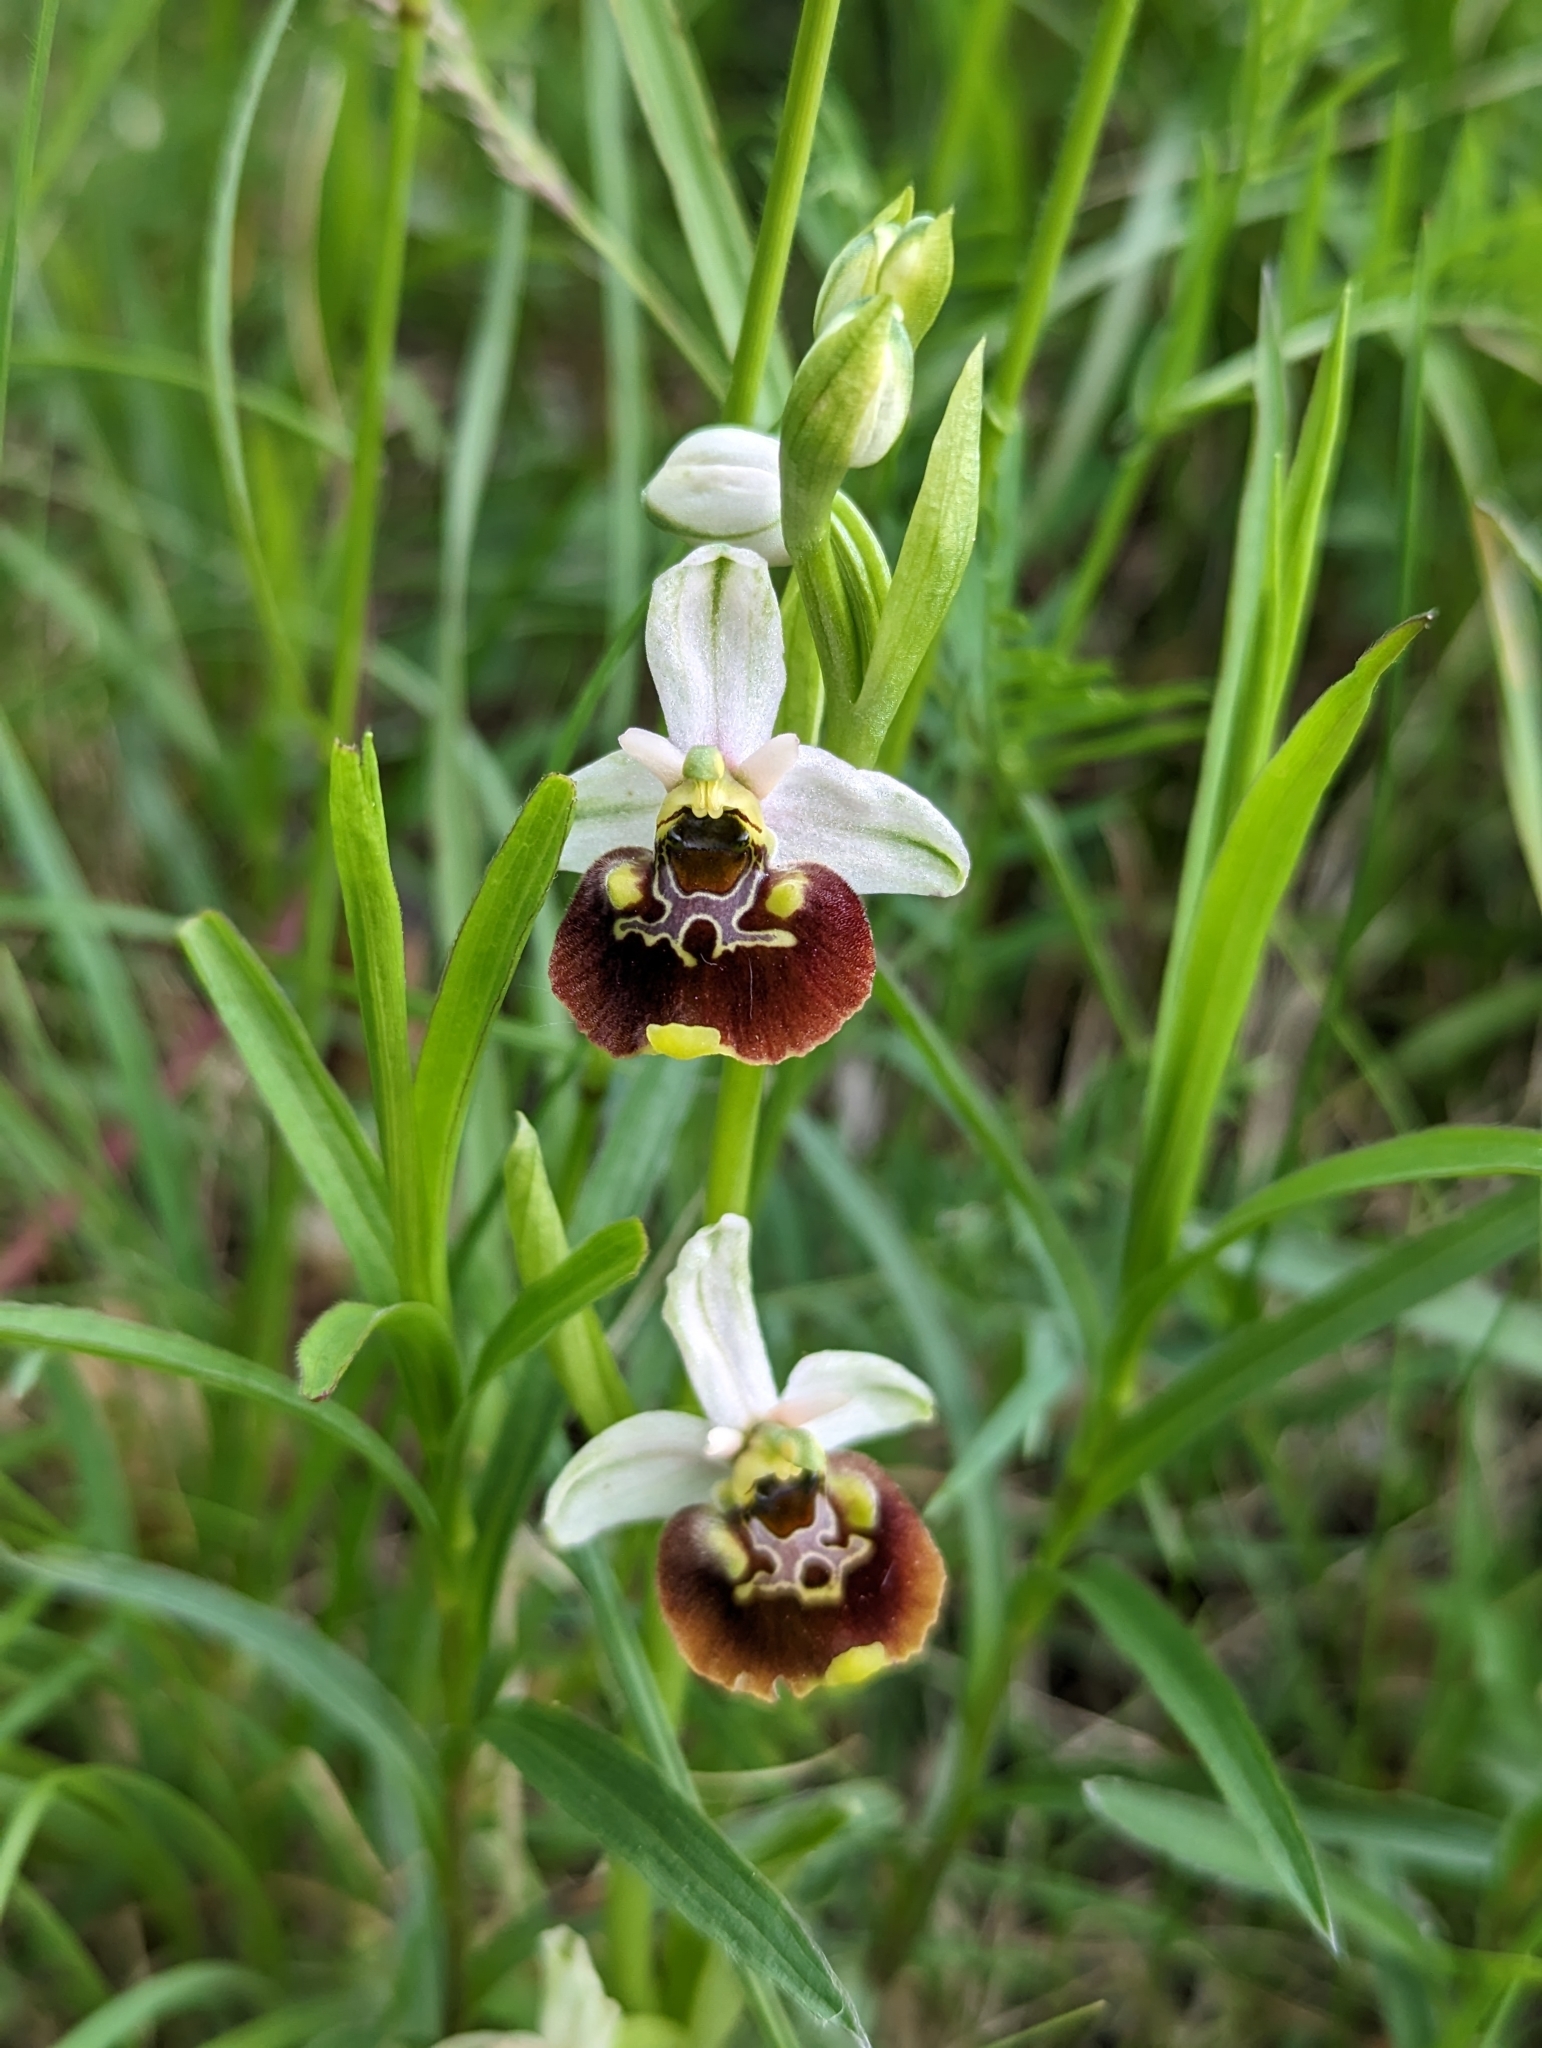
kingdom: Plantae
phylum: Tracheophyta
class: Liliopsida
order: Asparagales
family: Orchidaceae
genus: Ophrys
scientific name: Ophrys holosericea
